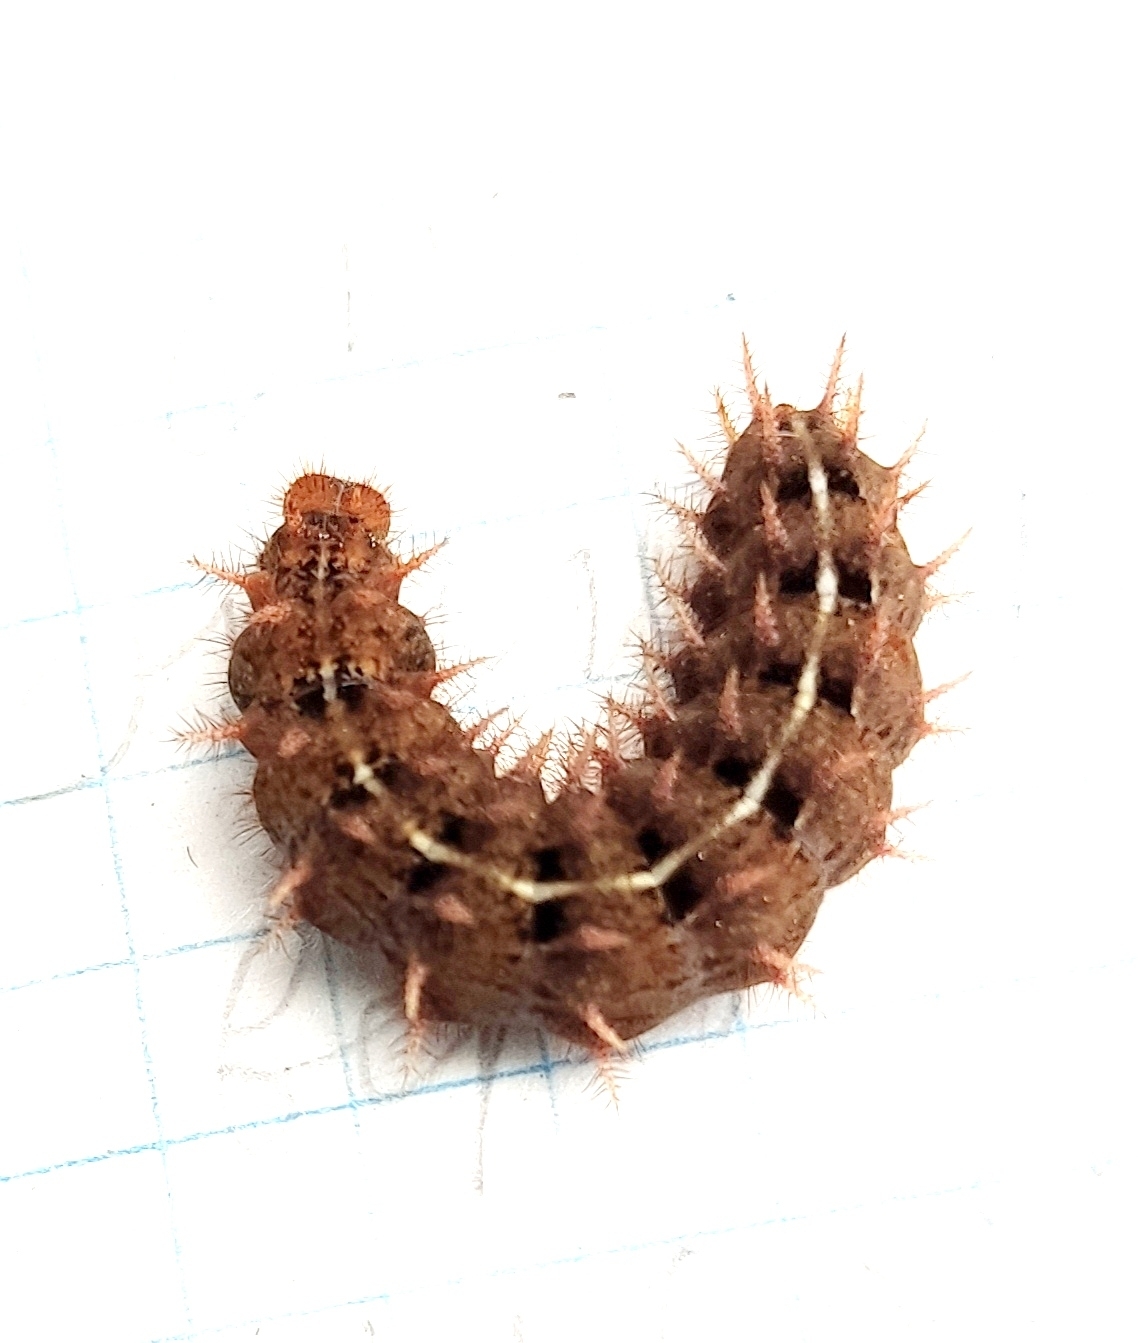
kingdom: Animalia
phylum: Arthropoda
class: Insecta
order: Lepidoptera
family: Nymphalidae
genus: Fabriciana
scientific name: Fabriciana adippe
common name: High brown fritillary
